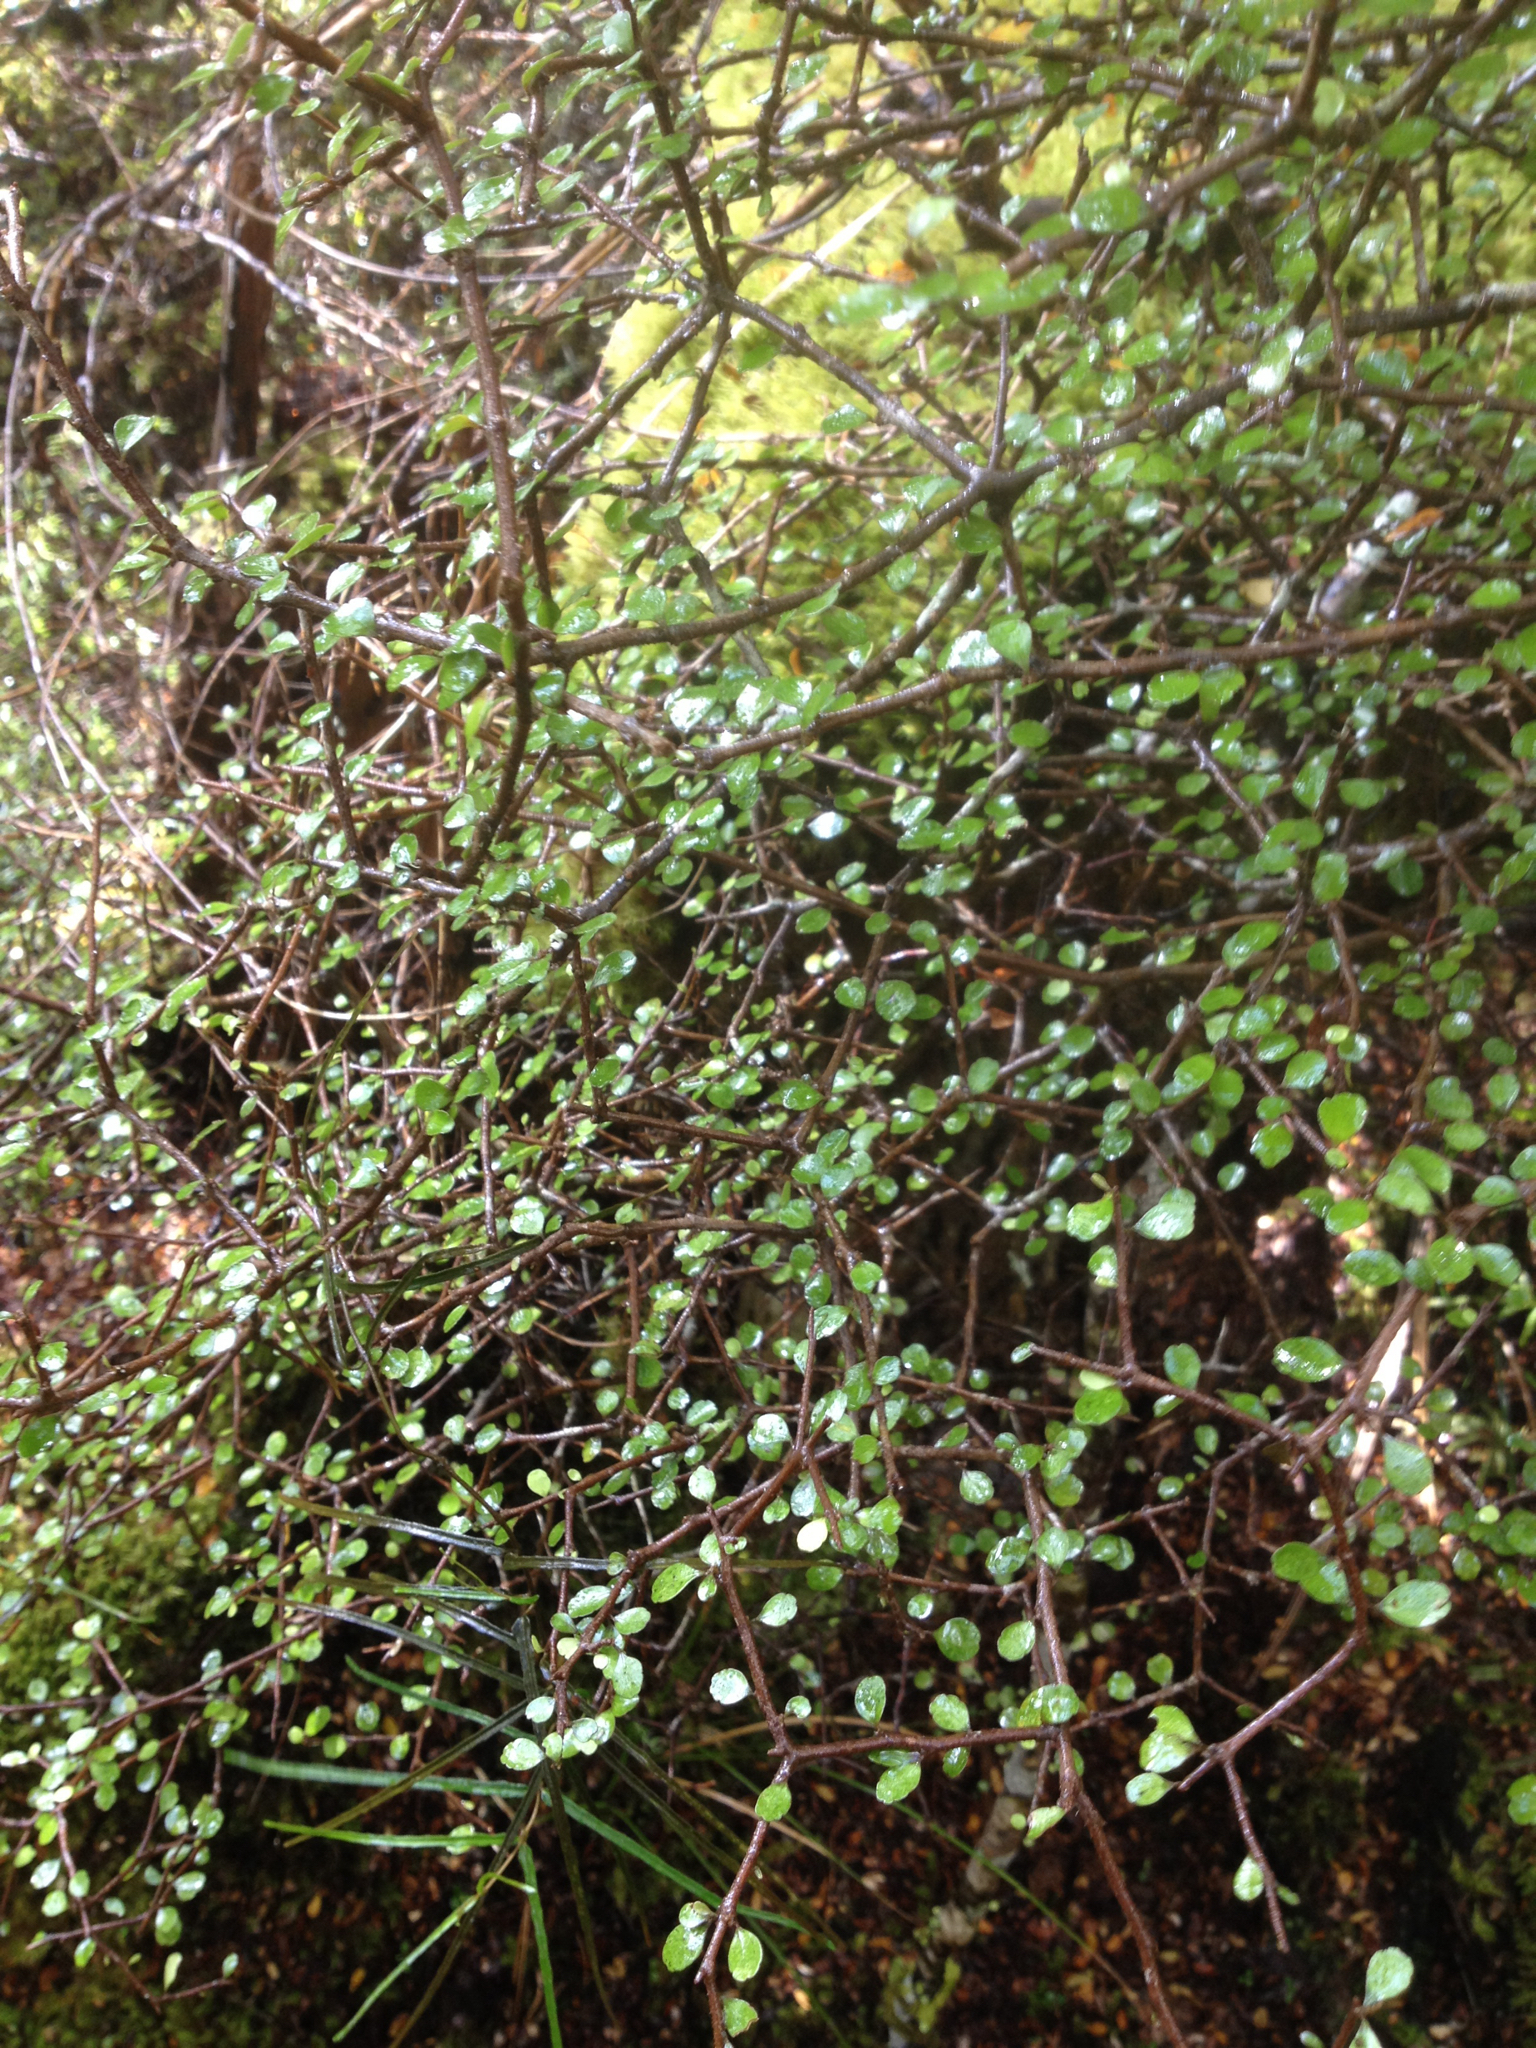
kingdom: Plantae
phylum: Tracheophyta
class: Magnoliopsida
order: Apiales
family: Araliaceae
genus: Raukaua
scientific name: Raukaua anomalus
